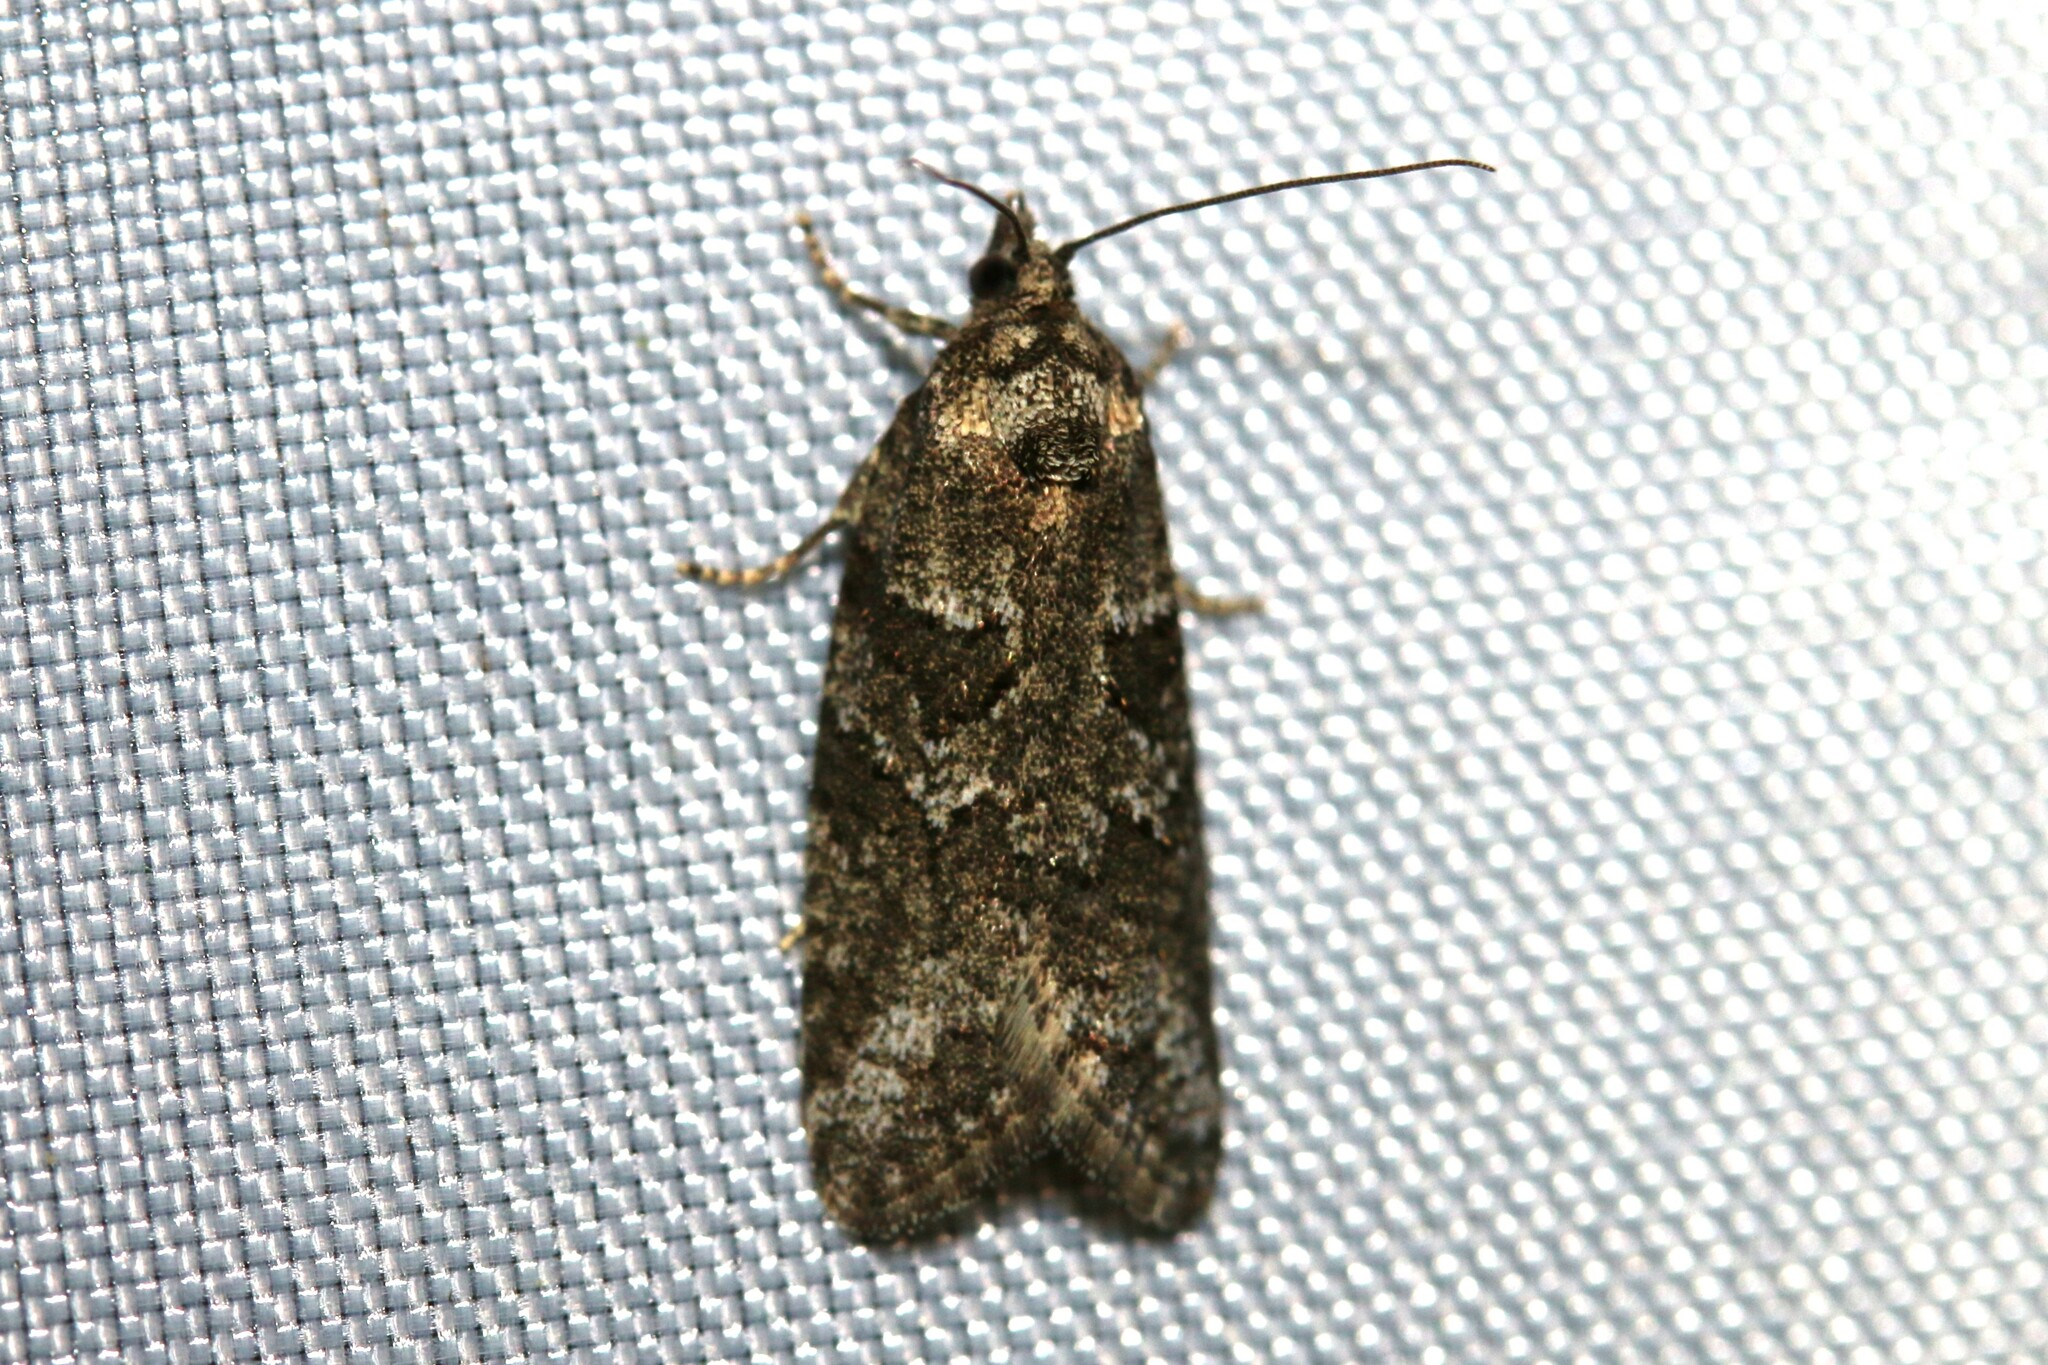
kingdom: Animalia
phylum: Arthropoda
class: Insecta
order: Lepidoptera
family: Tortricidae
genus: Cnephasia
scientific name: Cnephasia cupressivorana
